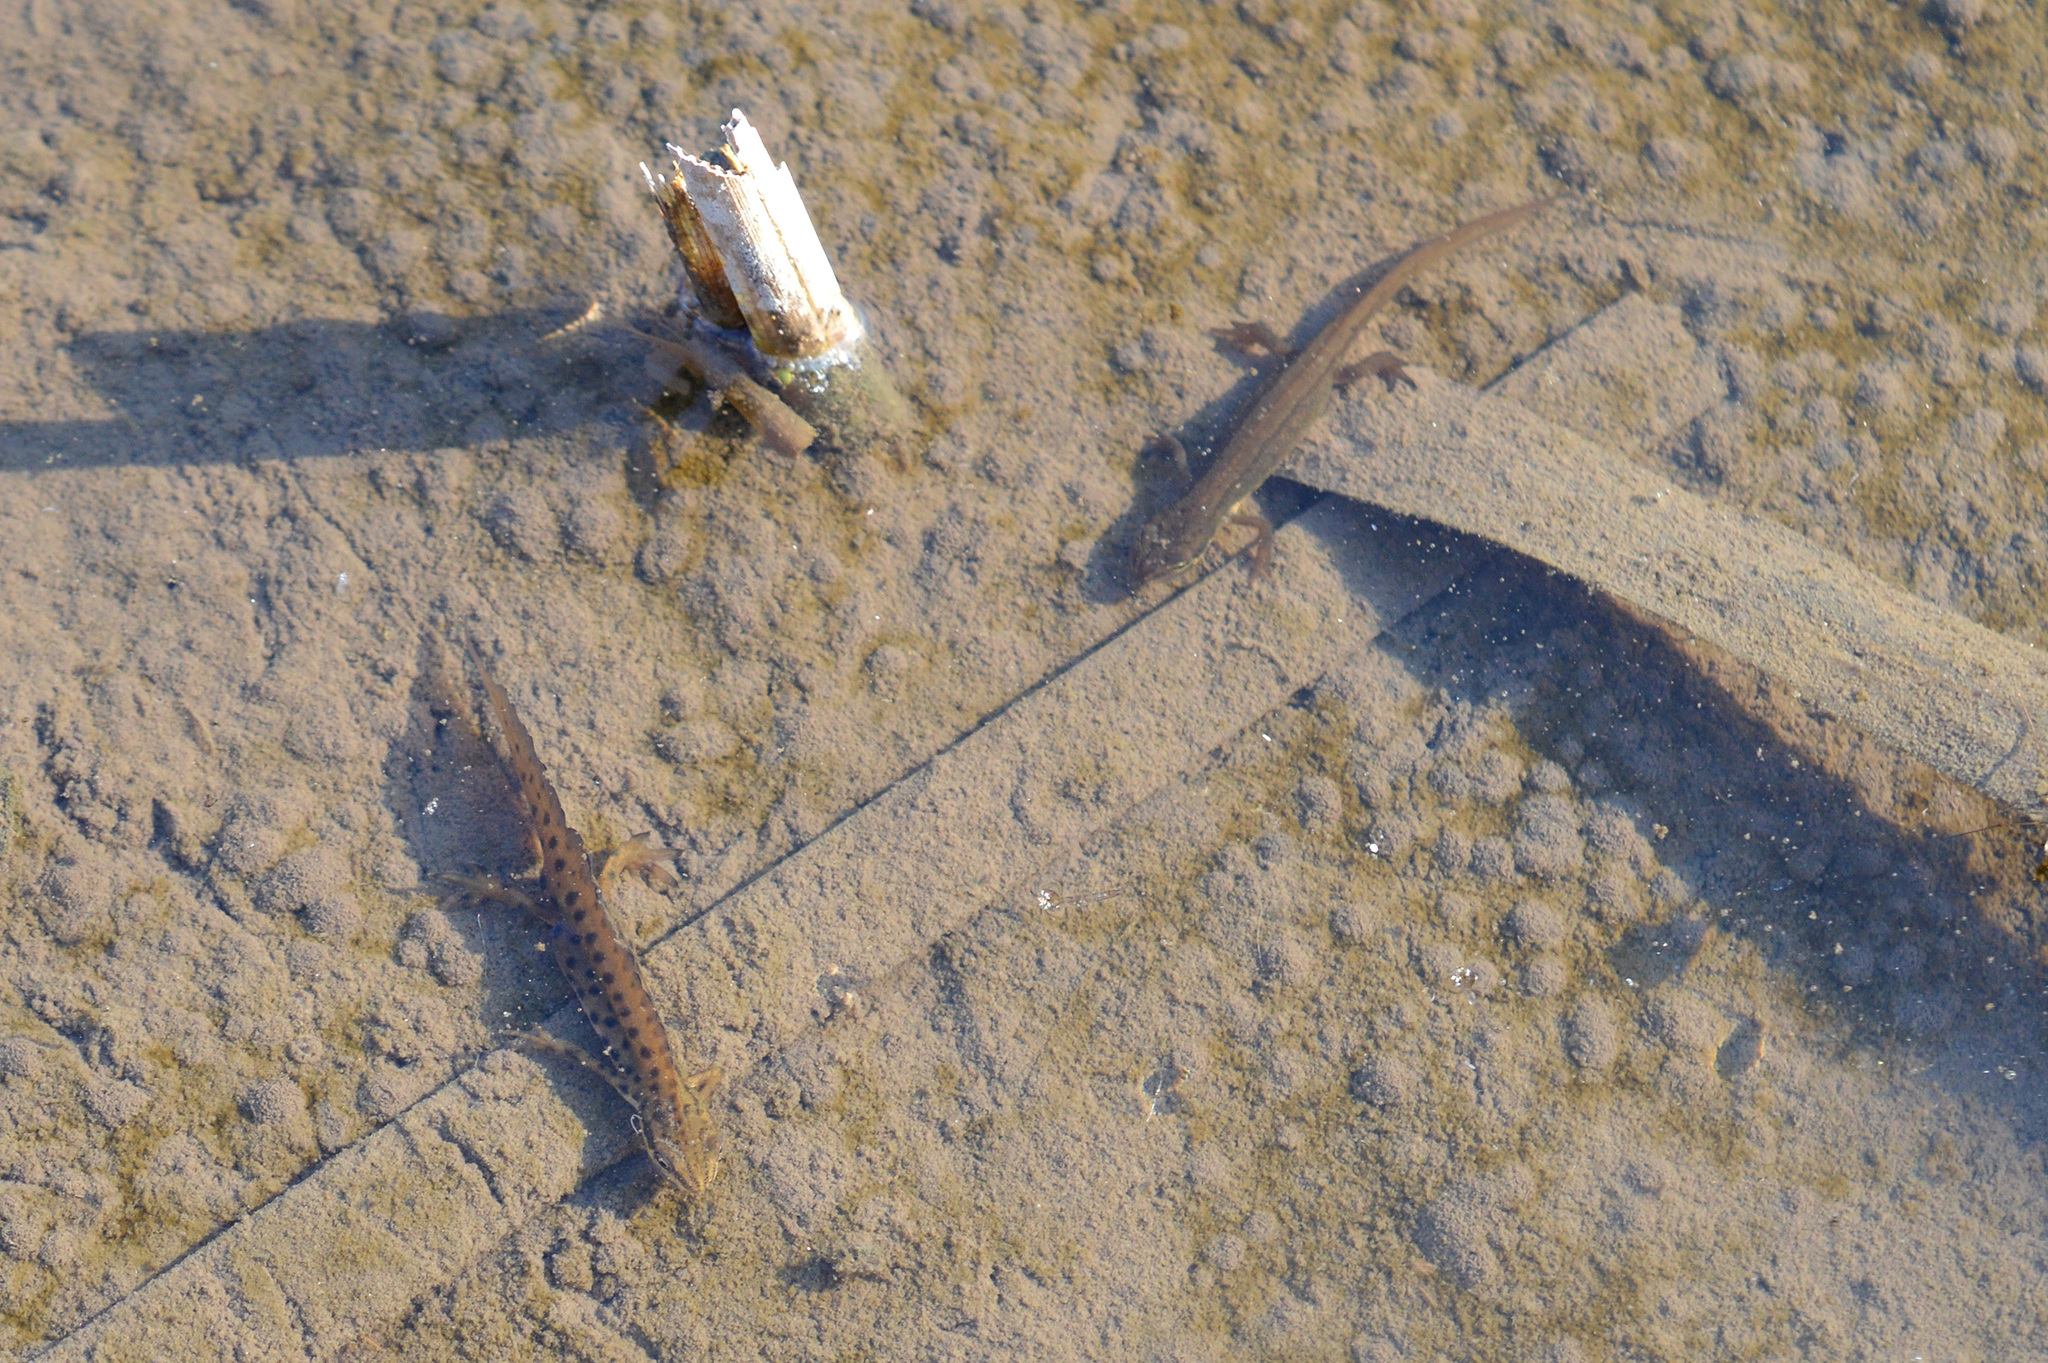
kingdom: Animalia
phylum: Chordata
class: Amphibia
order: Caudata
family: Salamandridae
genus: Lissotriton
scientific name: Lissotriton vulgaris
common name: Smooth newt
